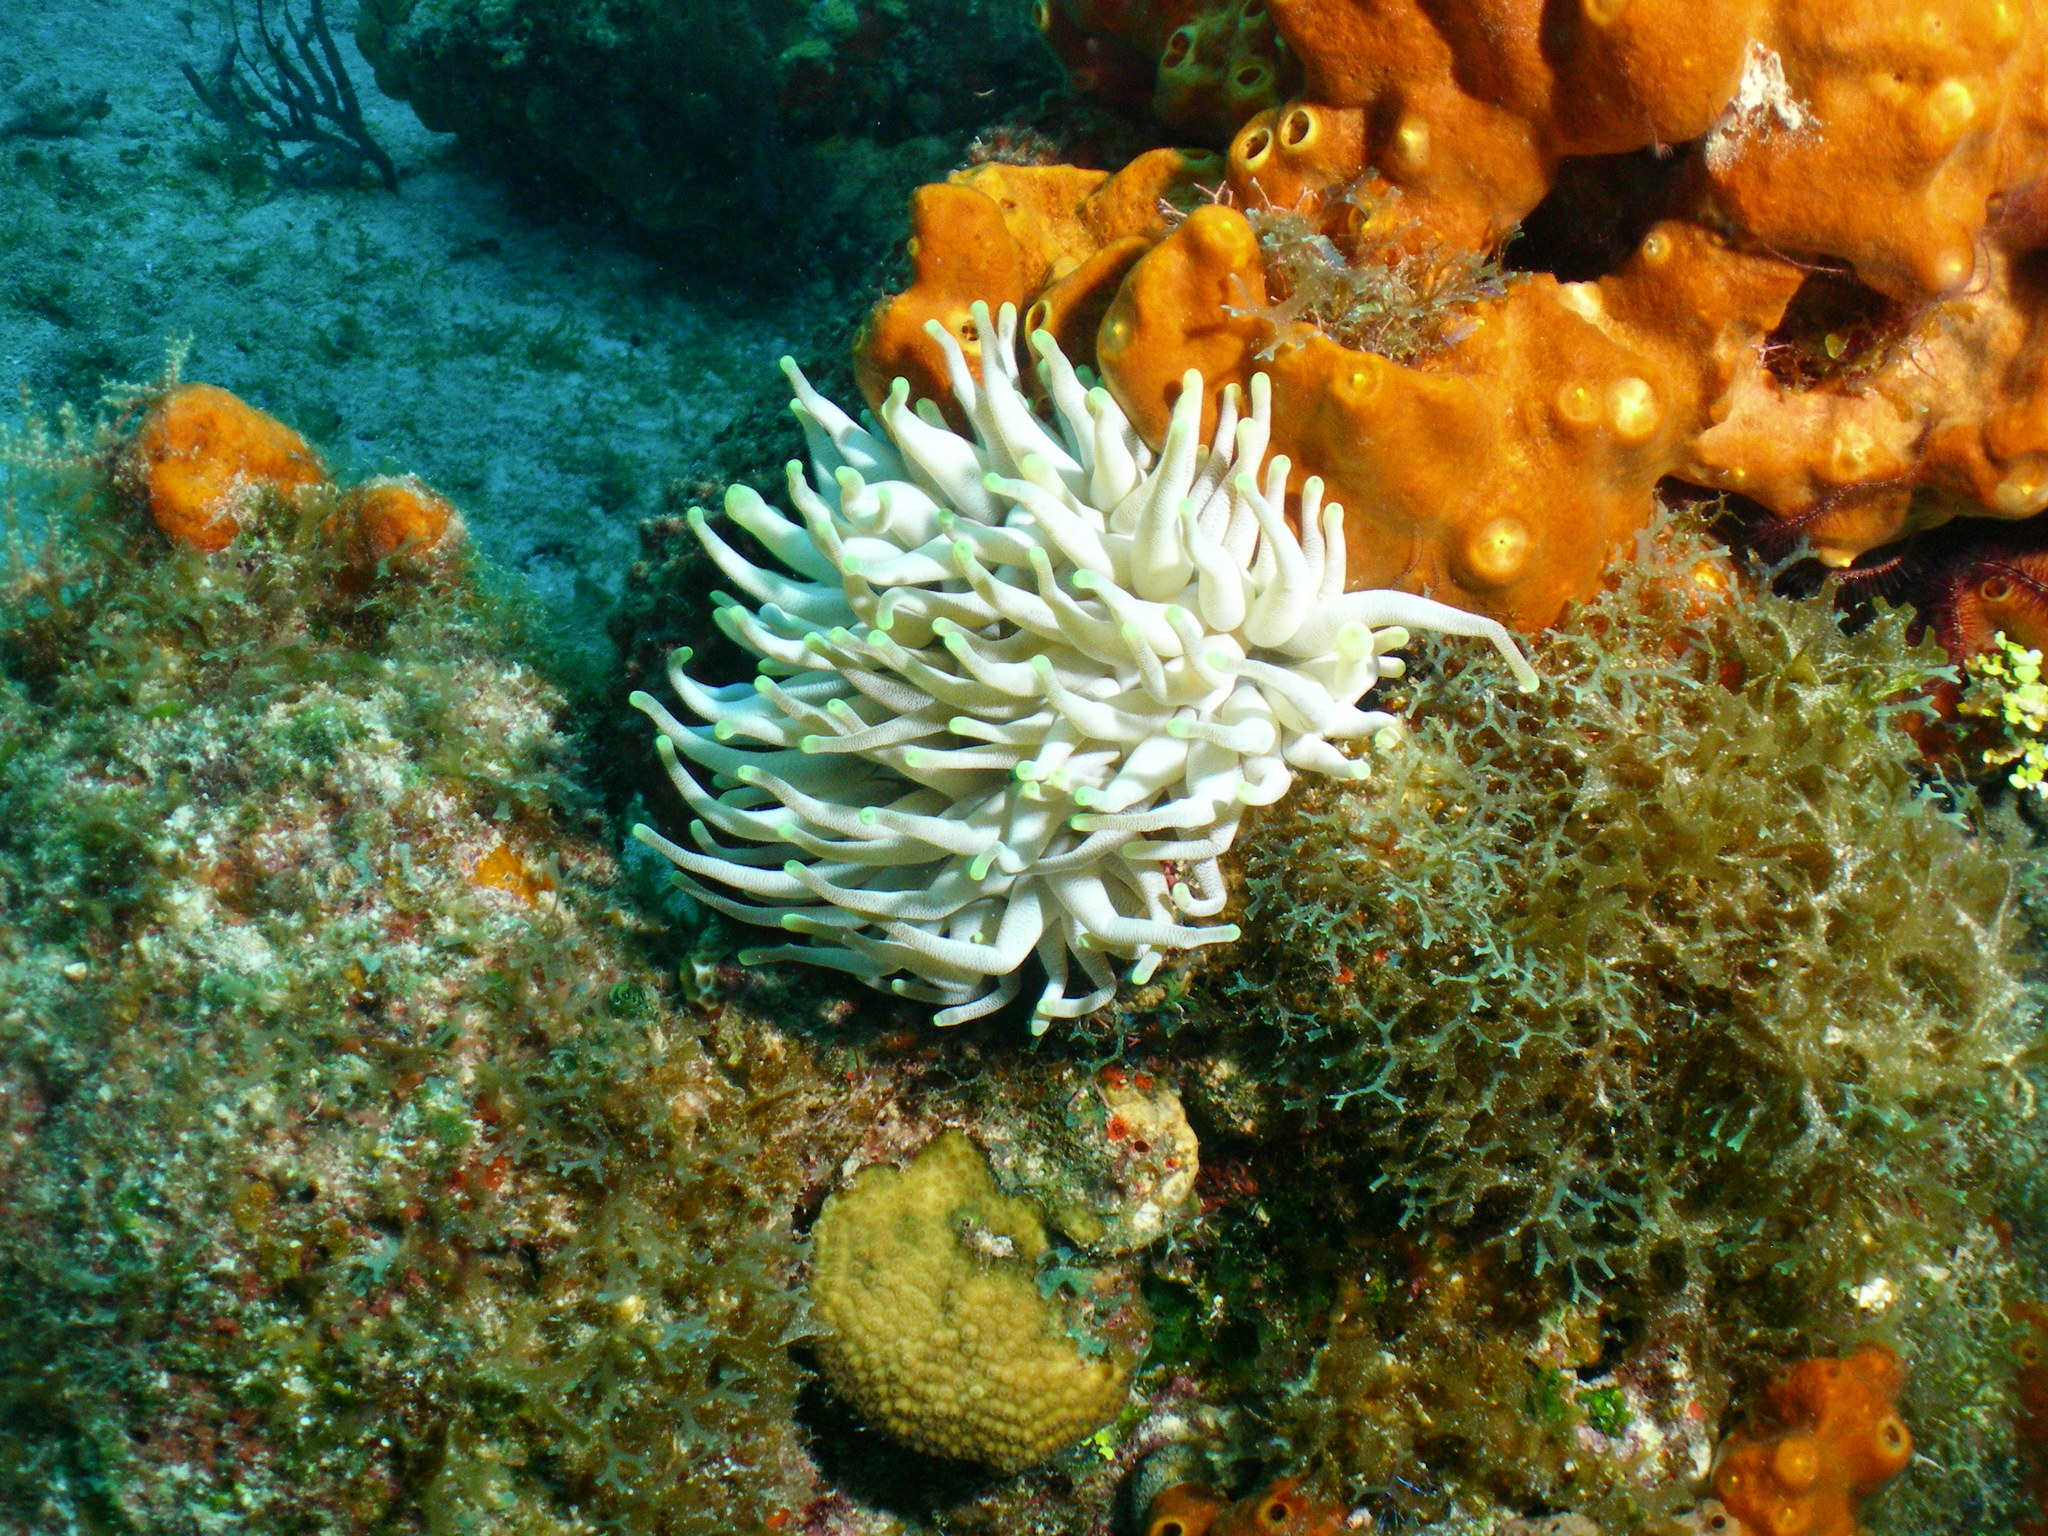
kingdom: Animalia
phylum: Cnidaria
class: Anthozoa
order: Actiniaria
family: Actiniidae
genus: Condylactis
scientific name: Condylactis gigantea
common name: Giant caribbean anemone
